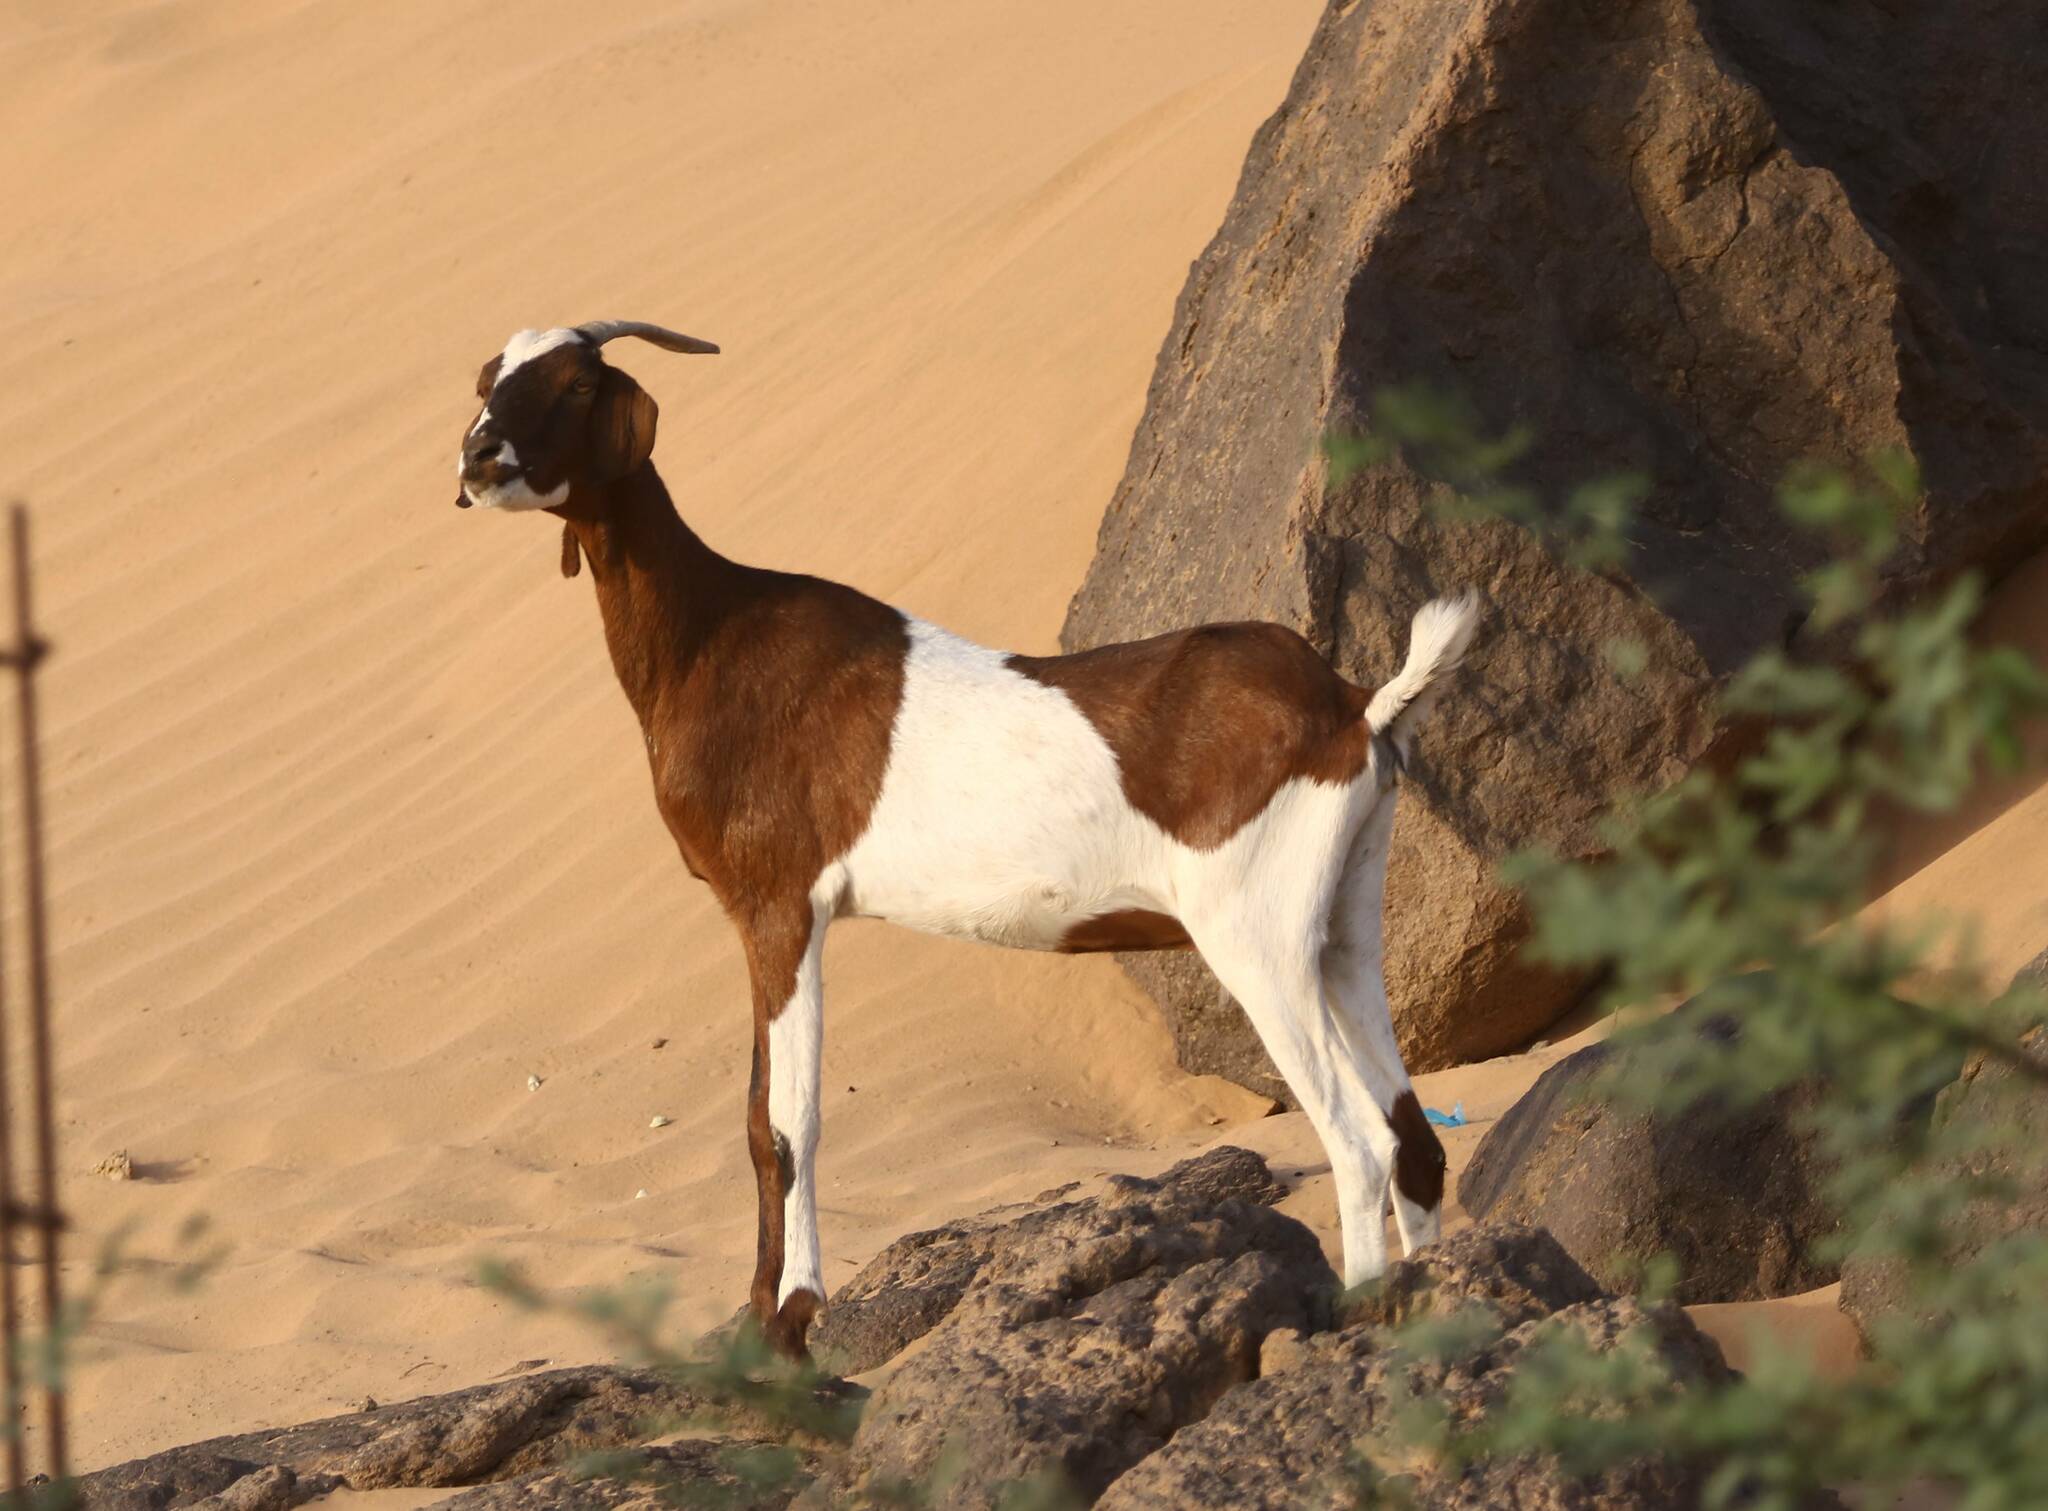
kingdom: Animalia
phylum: Chordata
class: Mammalia
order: Artiodactyla
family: Bovidae
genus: Capra
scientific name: Capra hircus
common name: Domestic goat
